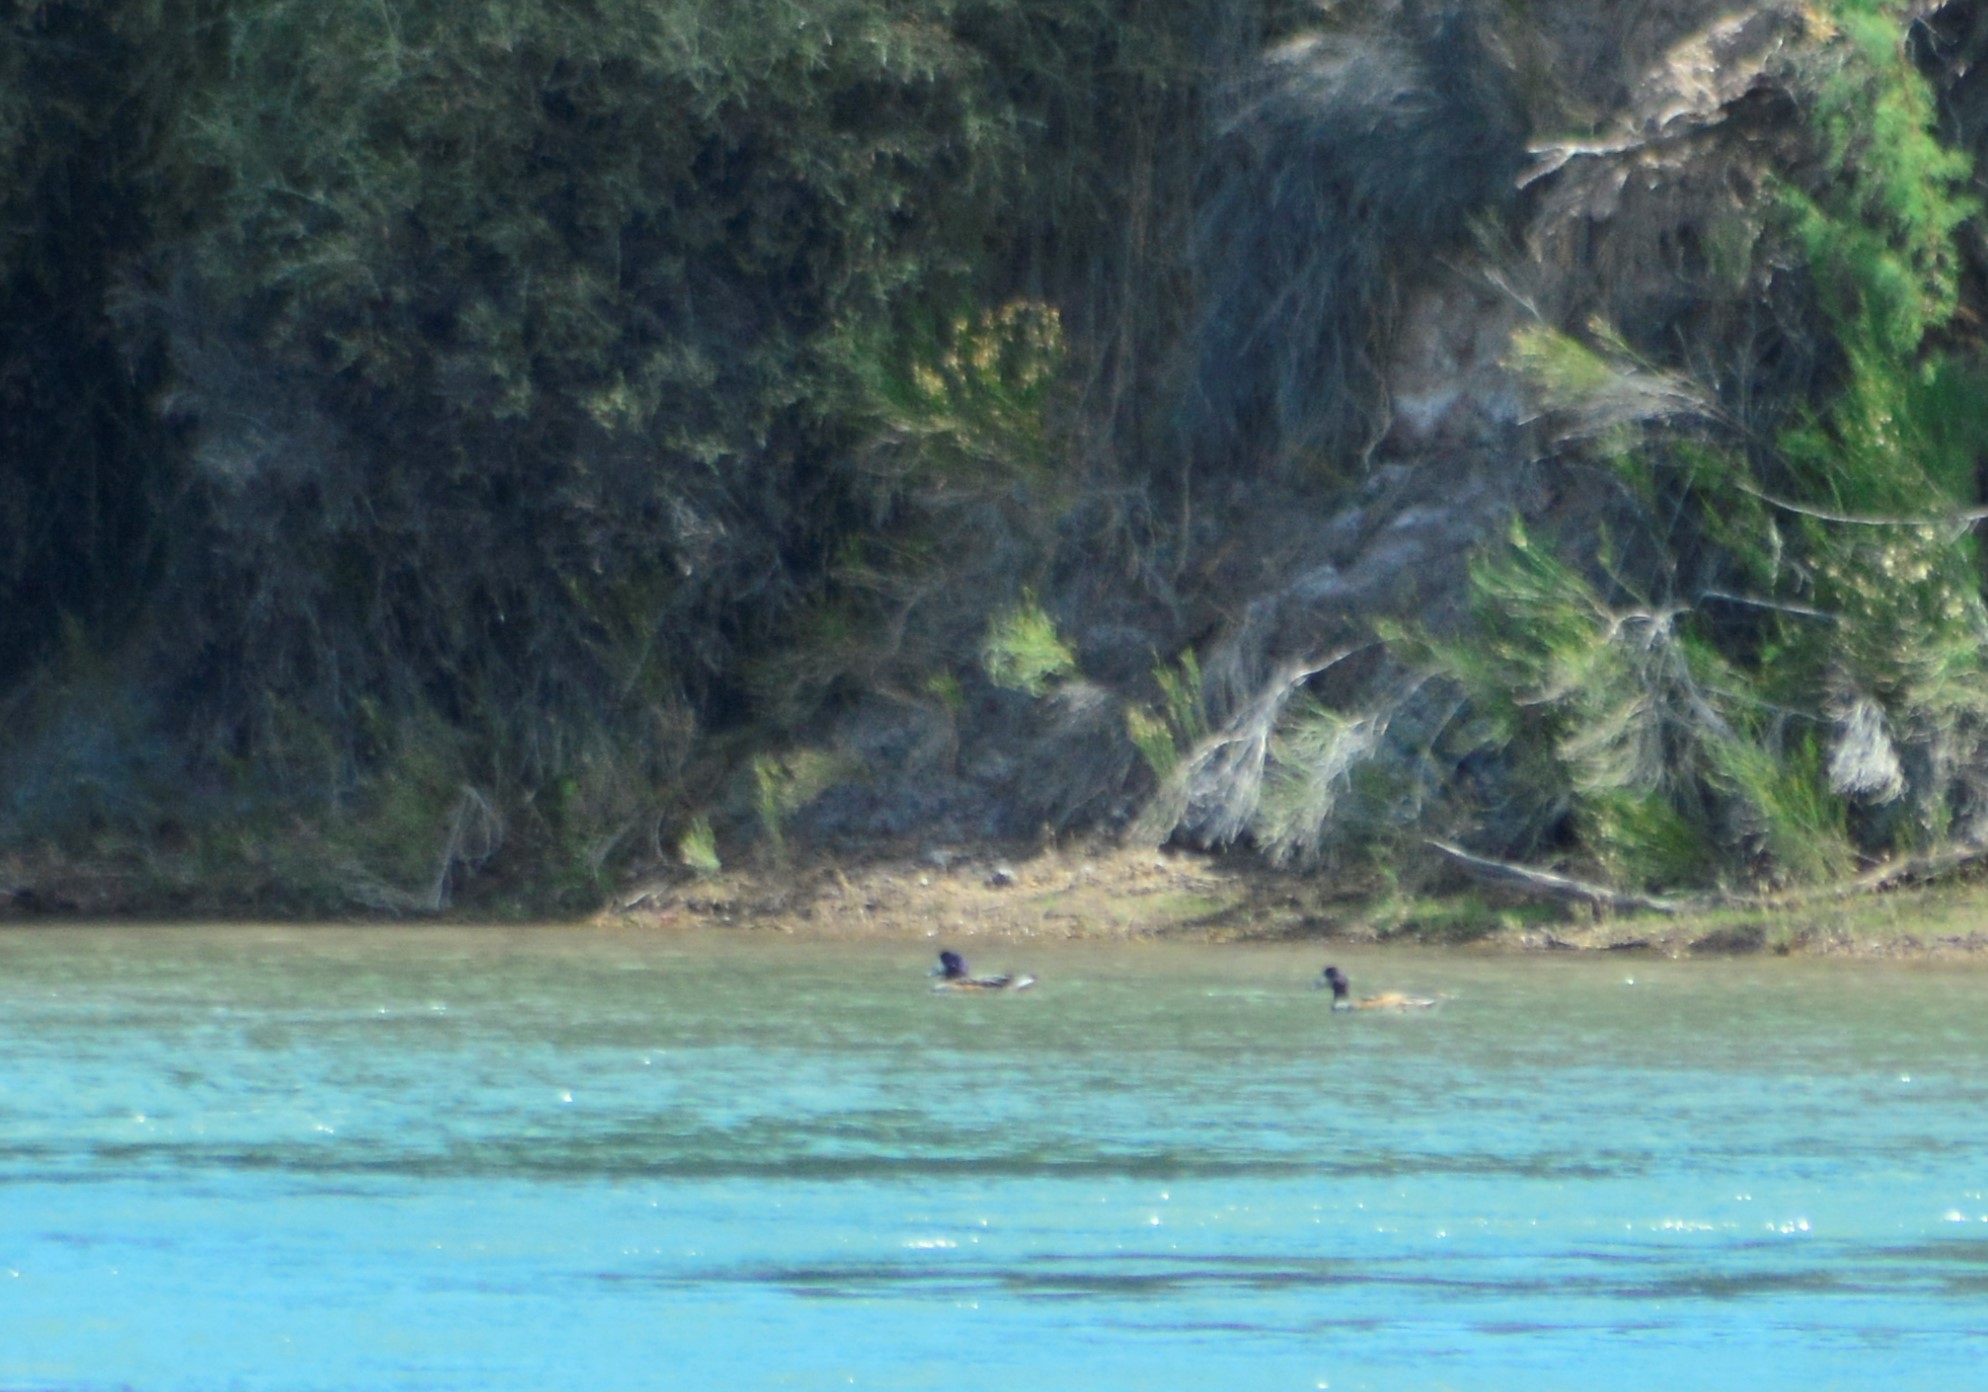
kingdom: Animalia
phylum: Chordata
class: Aves
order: Anseriformes
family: Anatidae
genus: Mareca
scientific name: Mareca sibilatrix
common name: Chiloe wigeon
